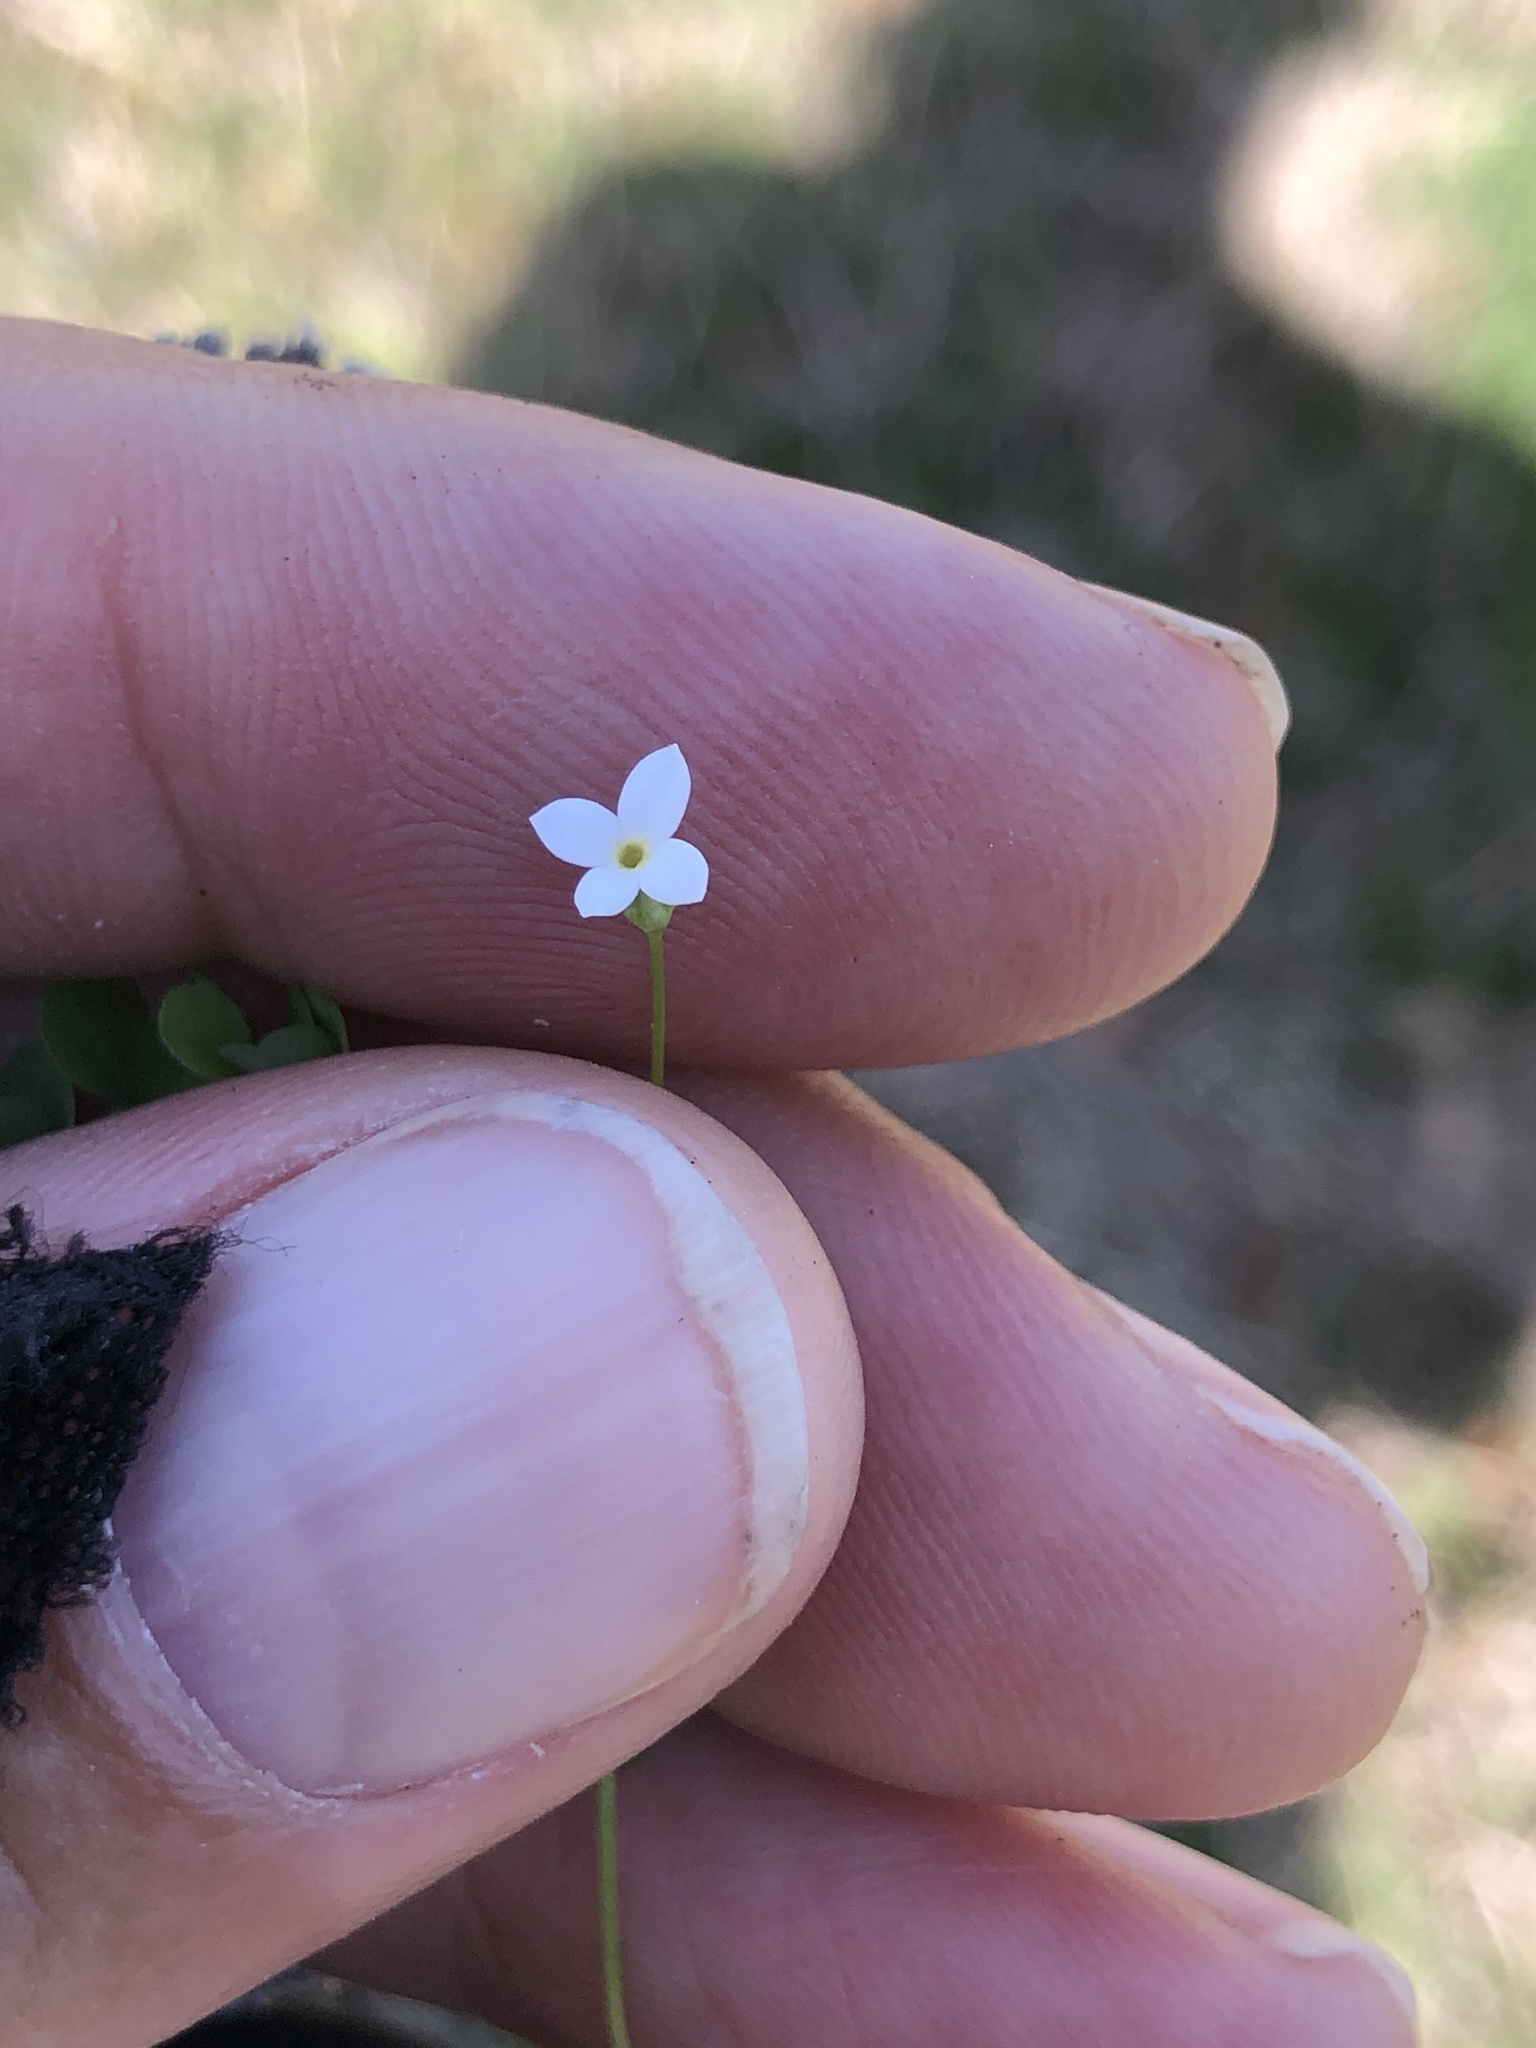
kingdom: Plantae
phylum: Tracheophyta
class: Magnoliopsida
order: Gentianales
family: Rubiaceae
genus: Houstonia
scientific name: Houstonia micrantha
